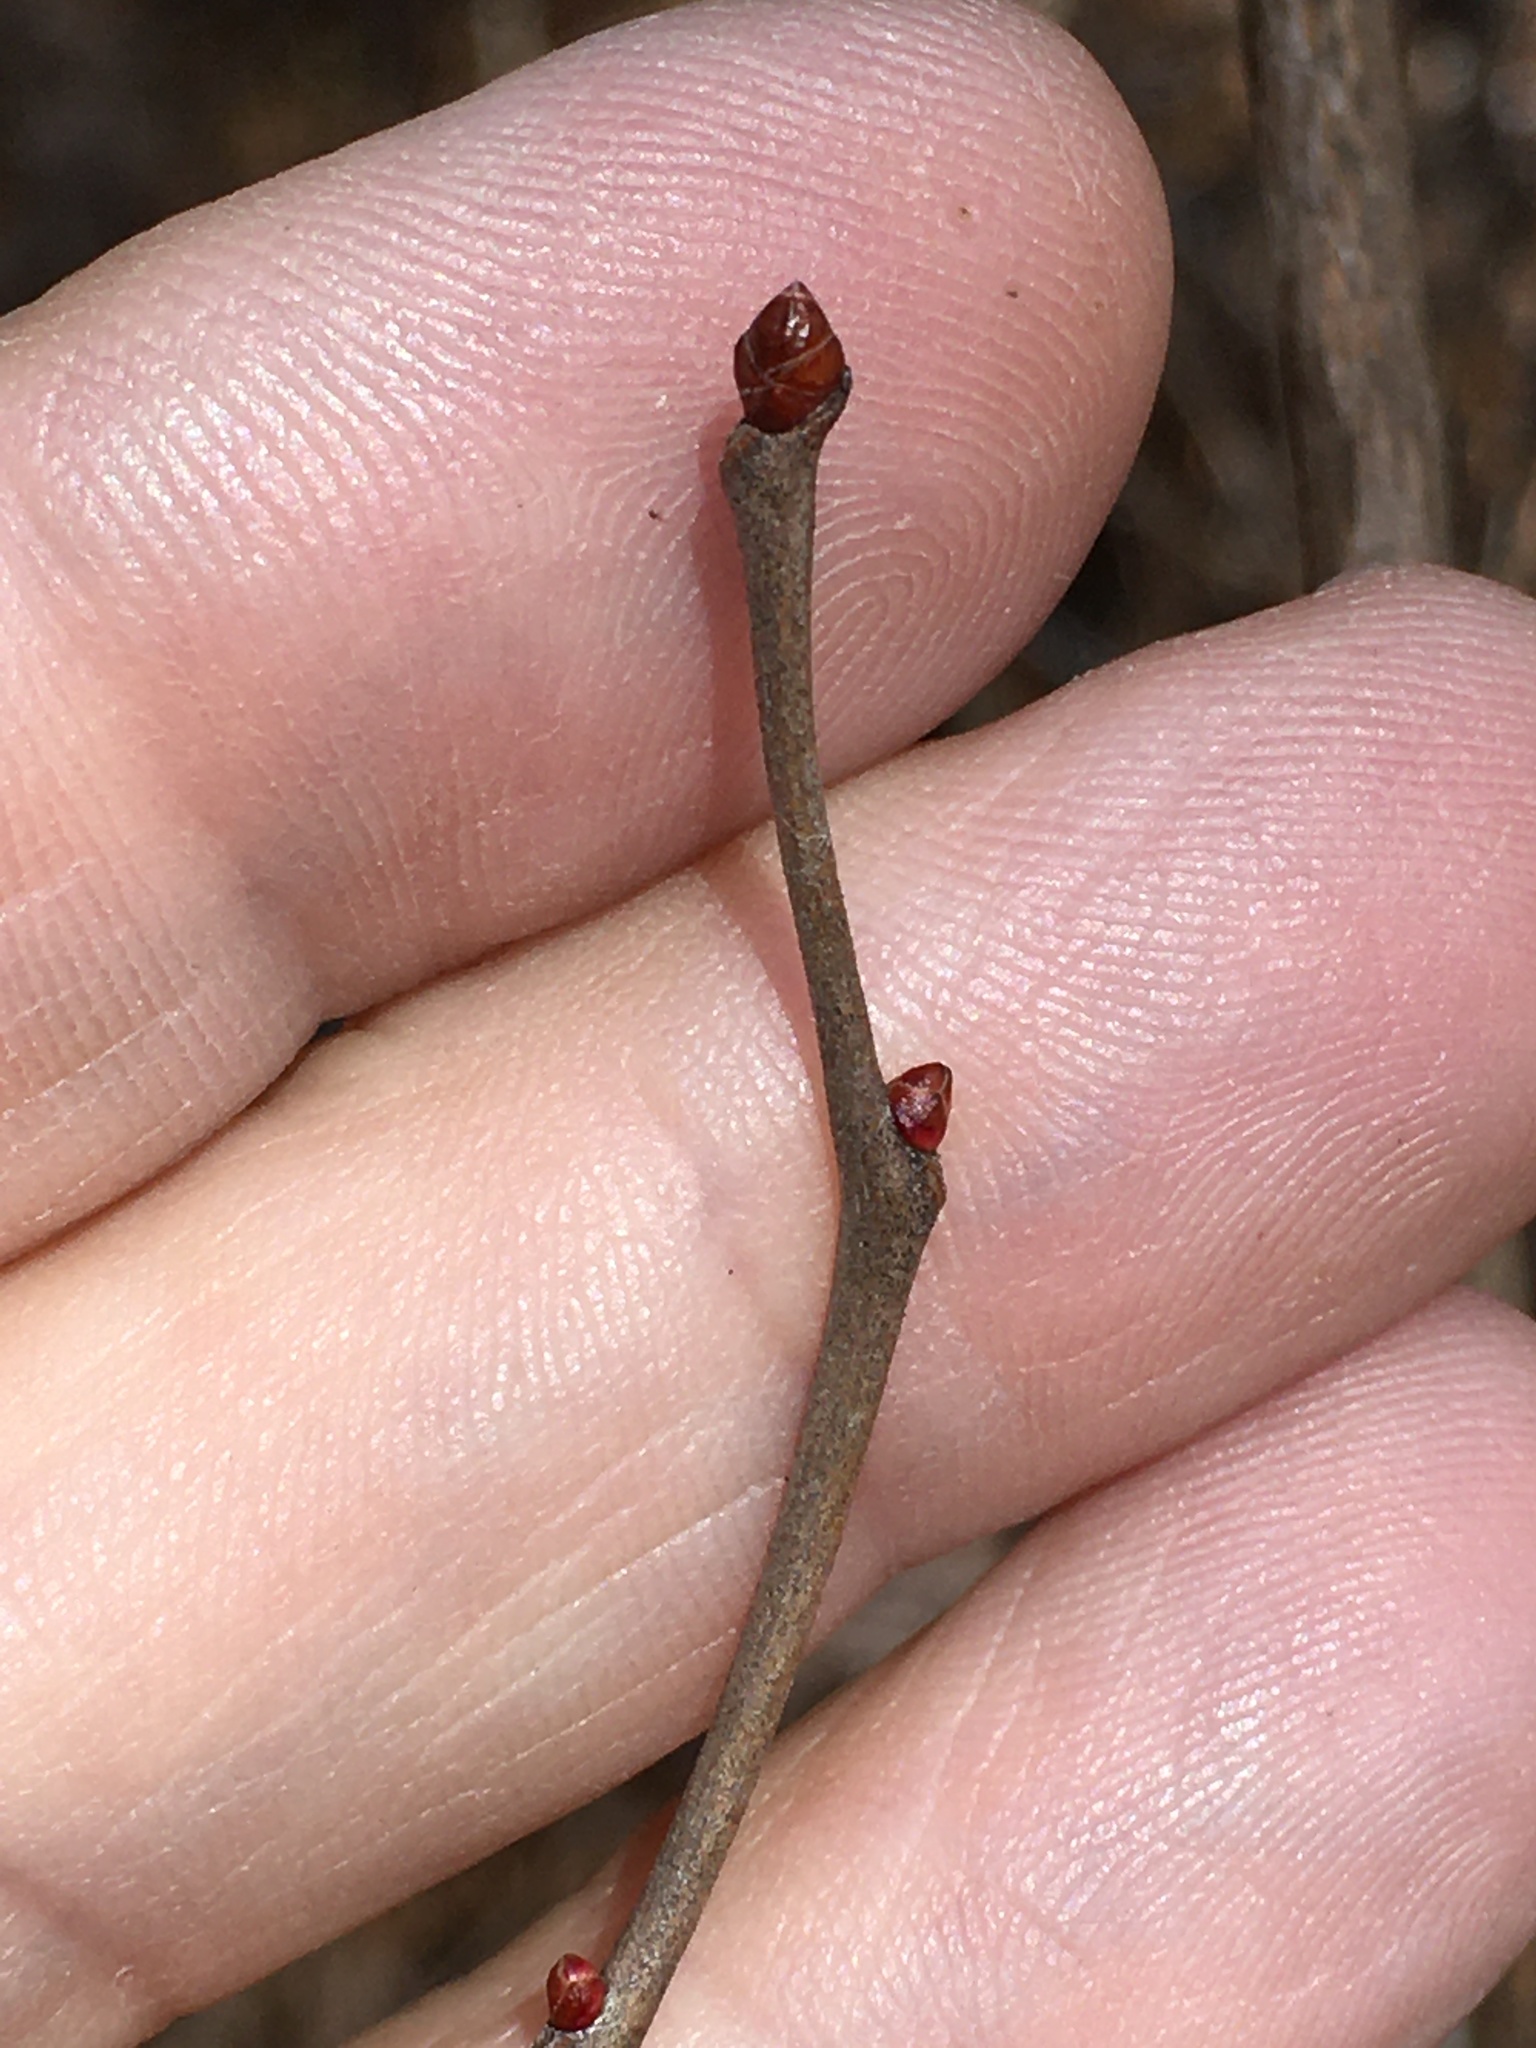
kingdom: Plantae
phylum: Tracheophyta
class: Magnoliopsida
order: Ericales
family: Ericaceae
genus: Lyonia
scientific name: Lyonia mariana
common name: Staggerbush
